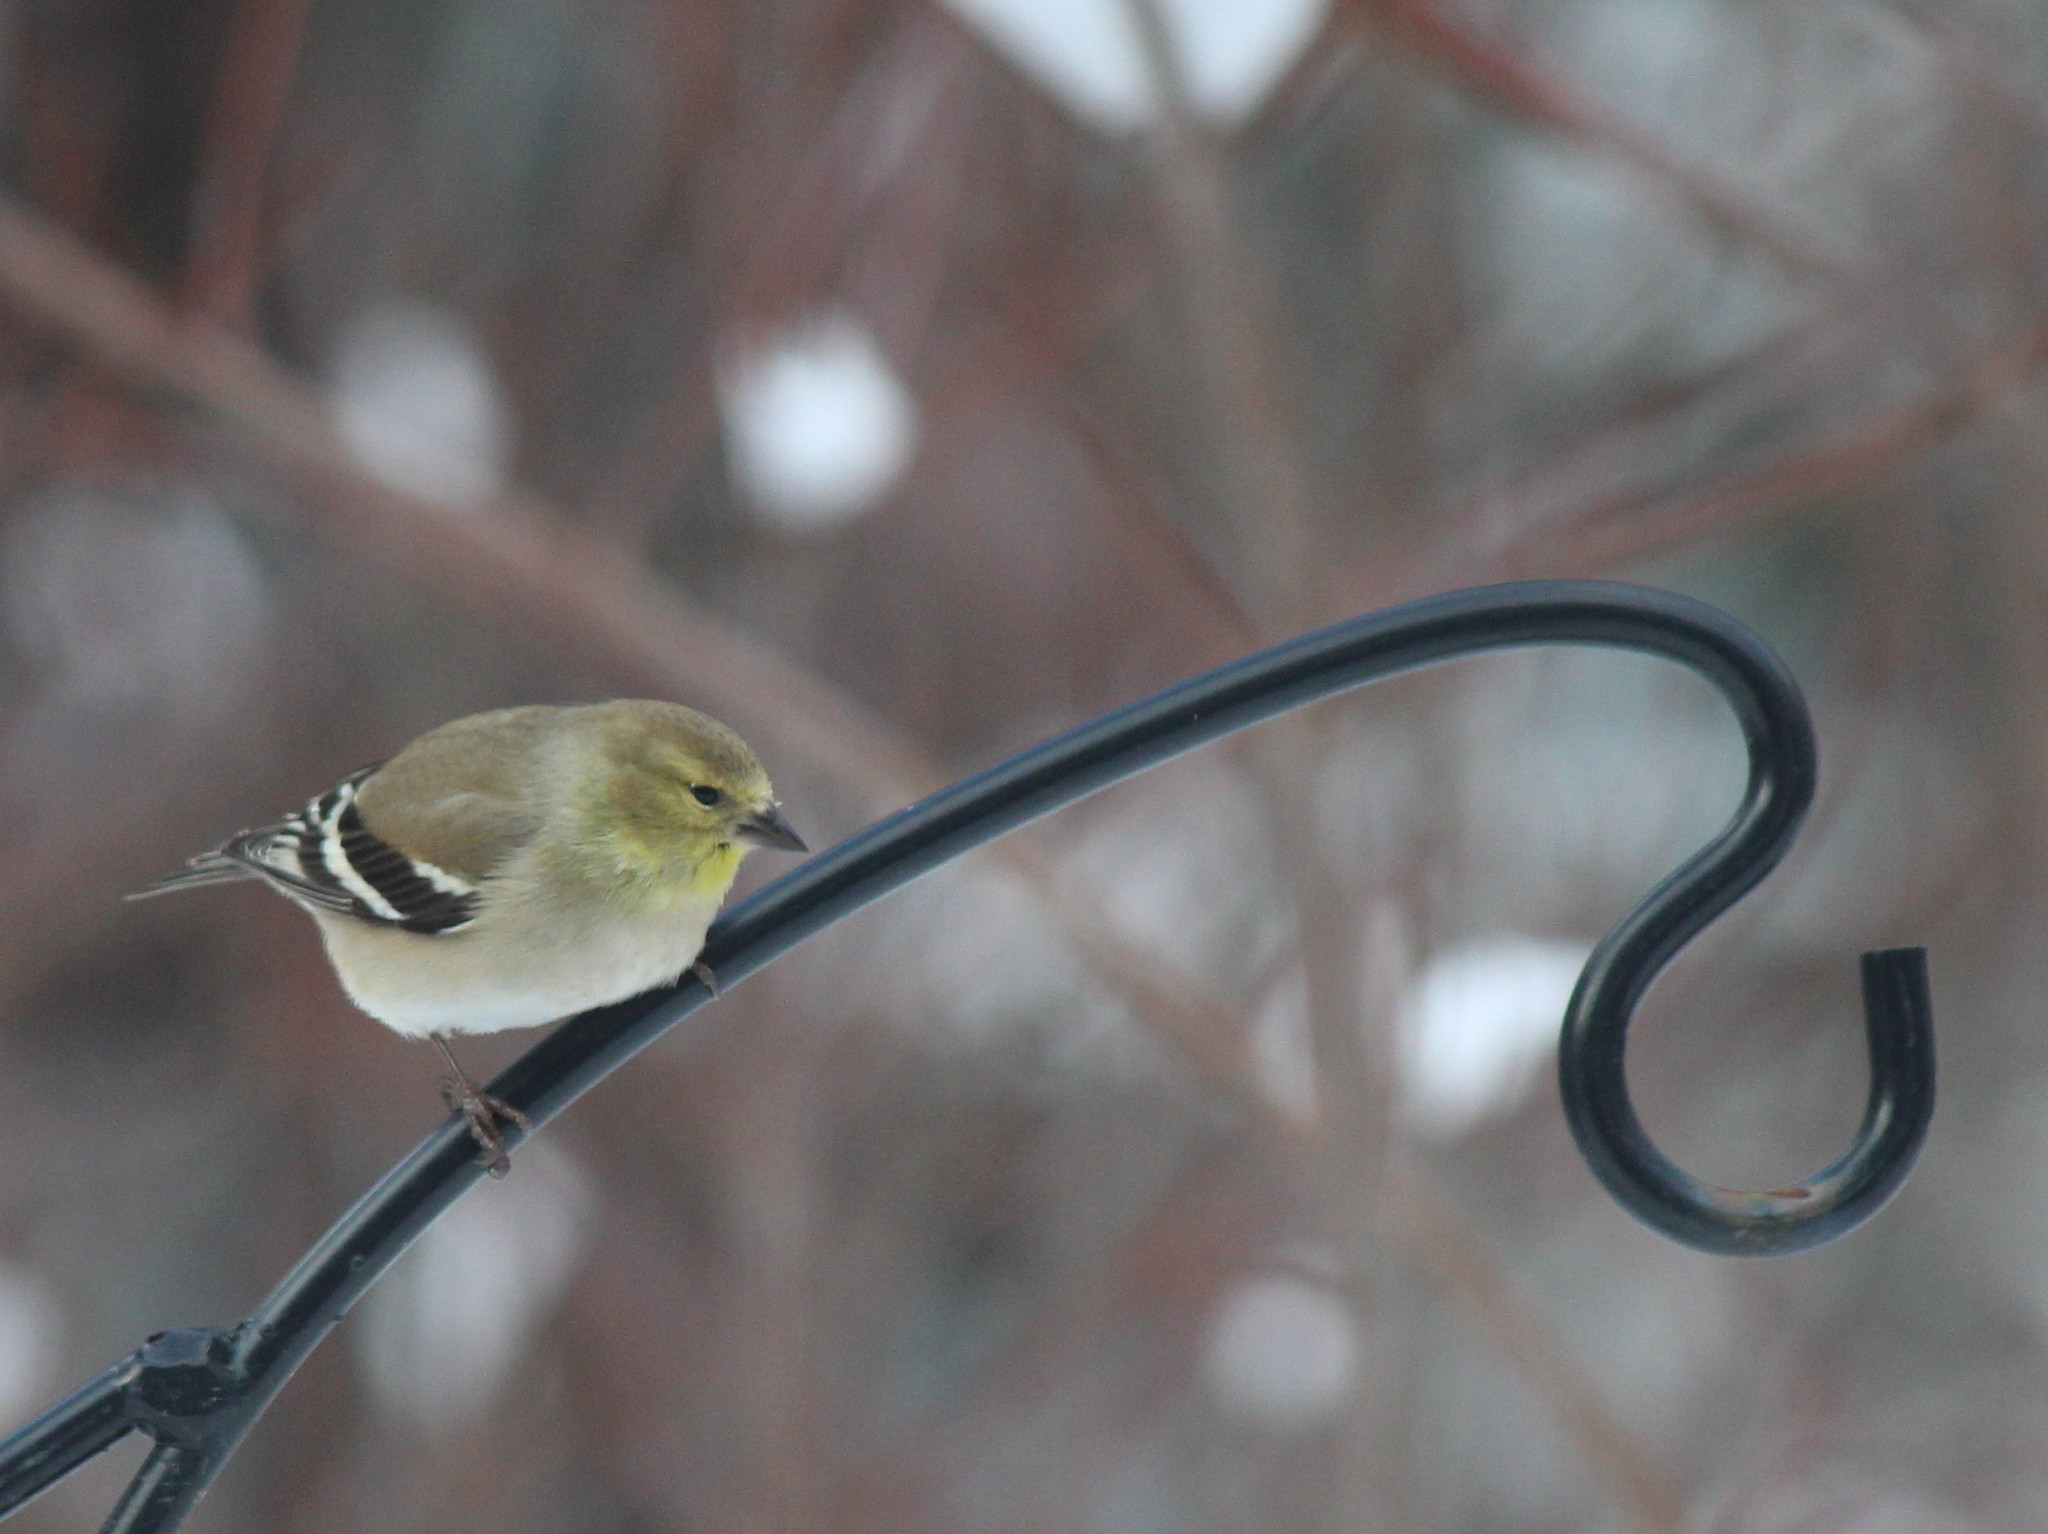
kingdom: Animalia
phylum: Chordata
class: Aves
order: Passeriformes
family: Fringillidae
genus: Spinus
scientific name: Spinus tristis
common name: American goldfinch
